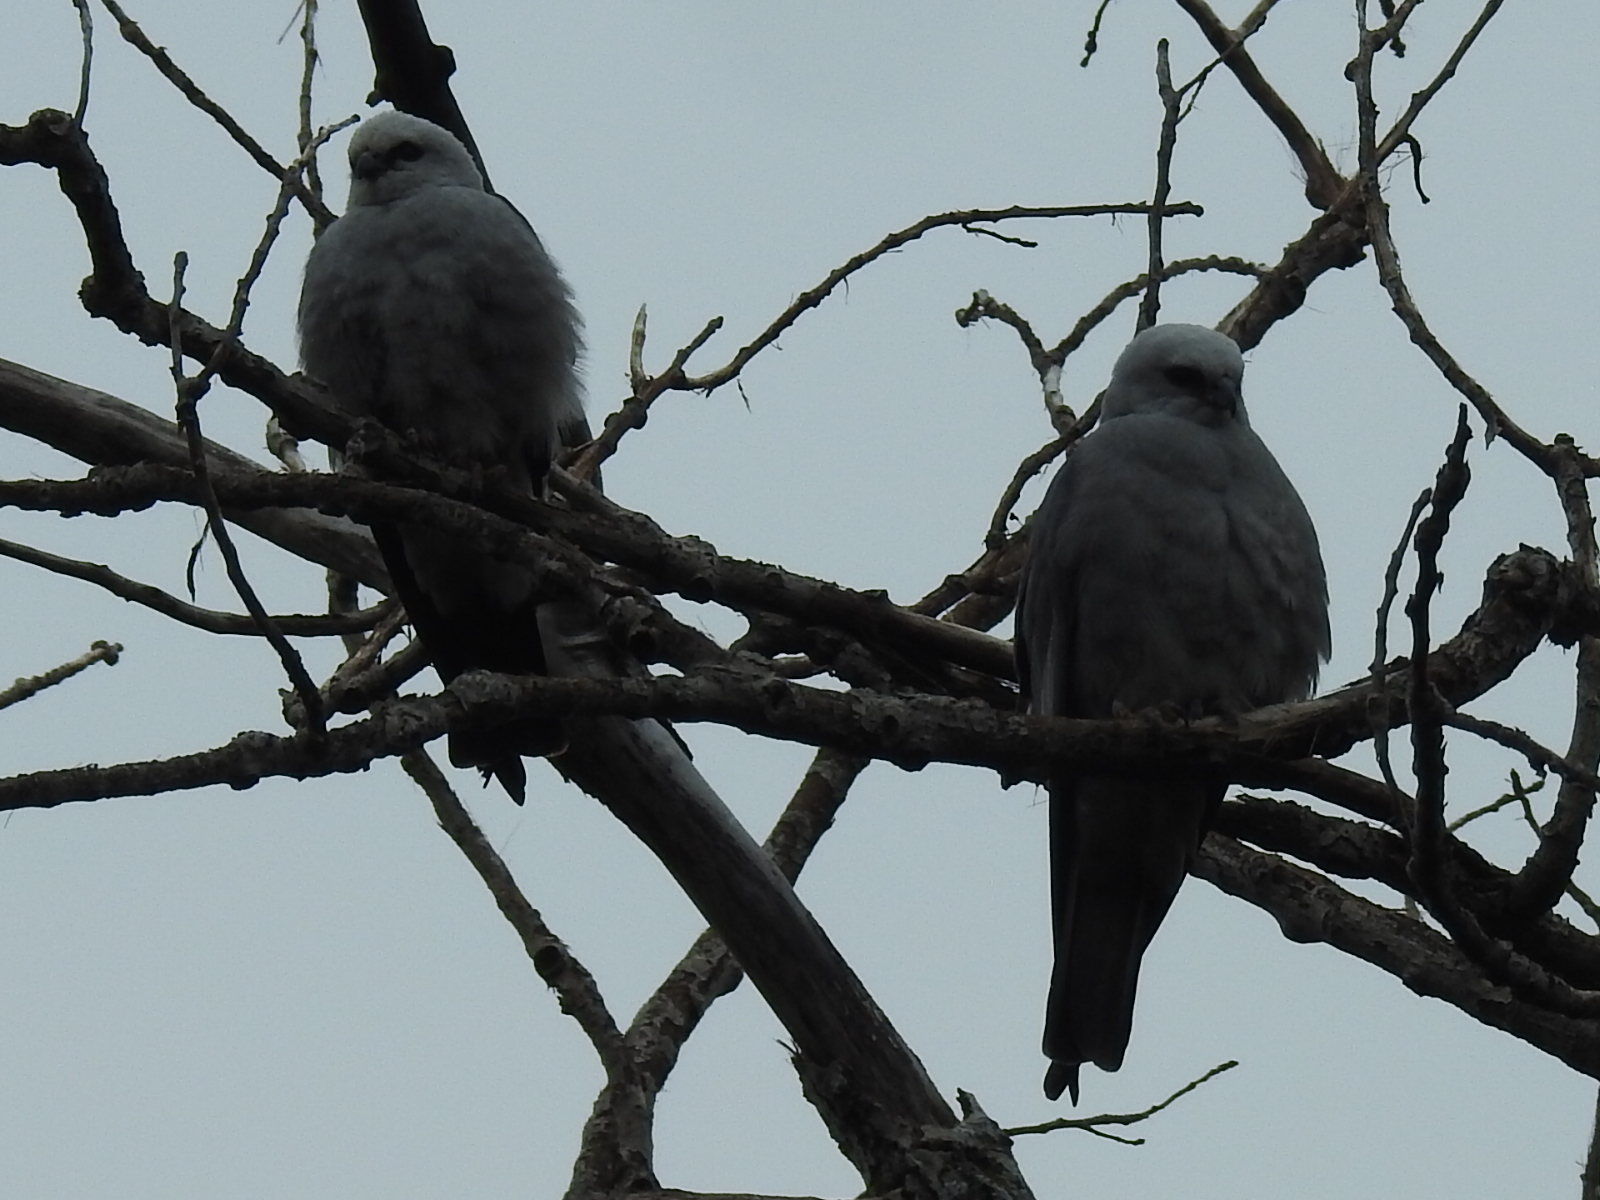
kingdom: Animalia
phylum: Chordata
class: Aves
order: Accipitriformes
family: Accipitridae
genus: Ictinia
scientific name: Ictinia mississippiensis
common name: Mississippi kite
